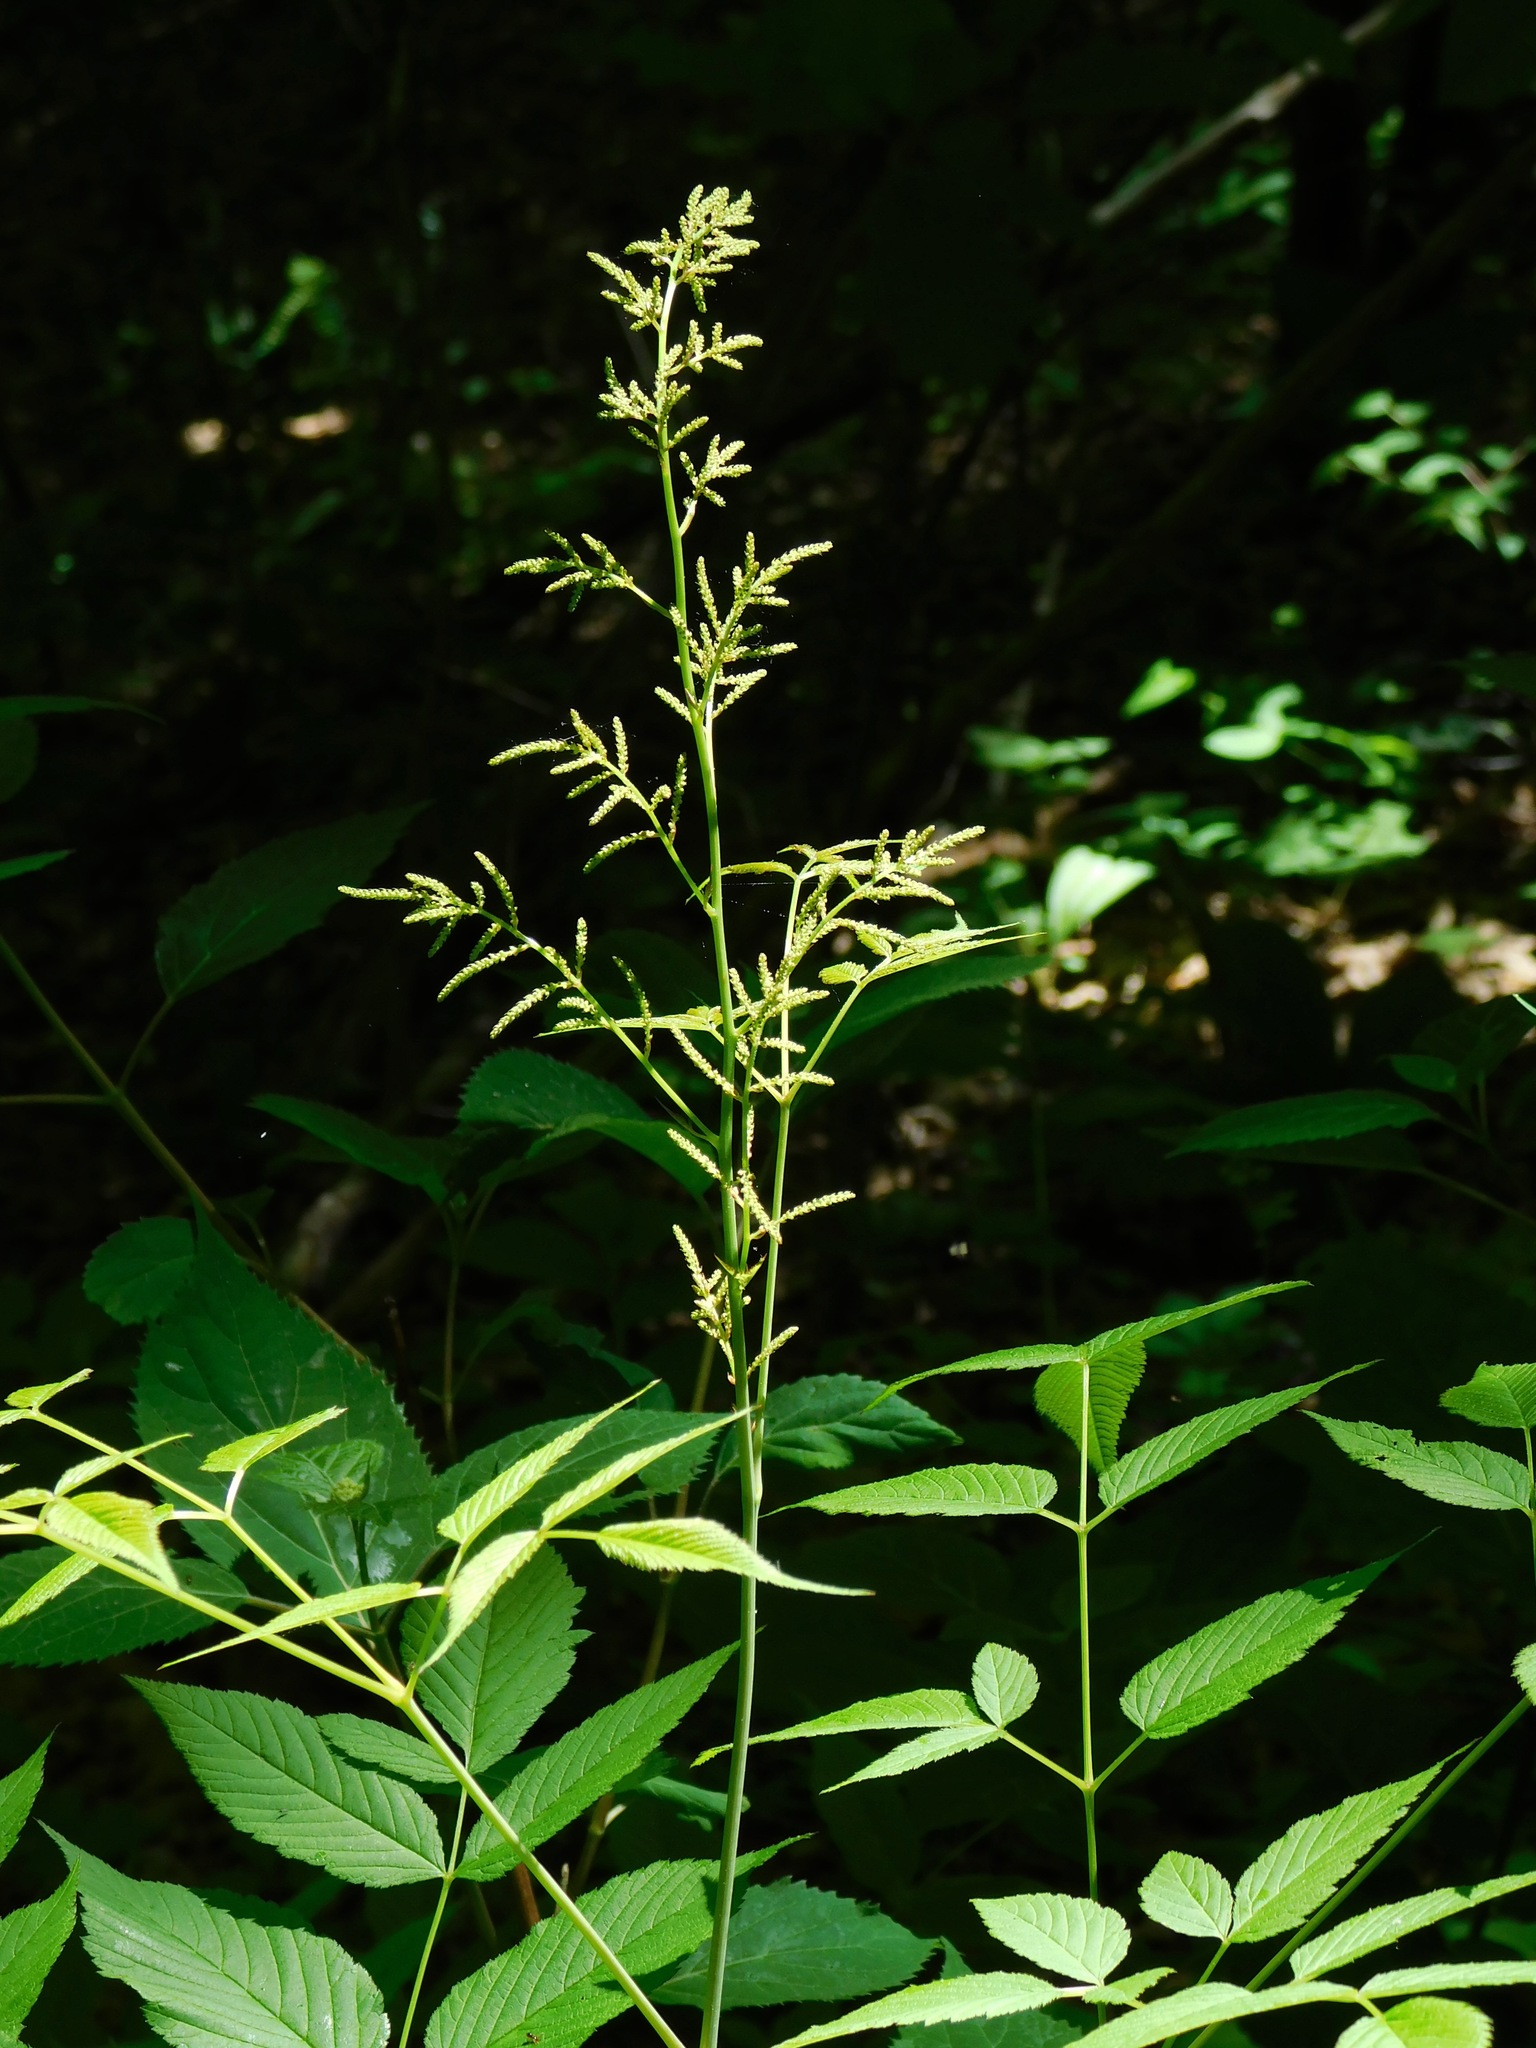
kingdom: Plantae
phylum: Tracheophyta
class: Magnoliopsida
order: Rosales
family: Rosaceae
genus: Aruncus
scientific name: Aruncus dioicus
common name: Buck's-beard
